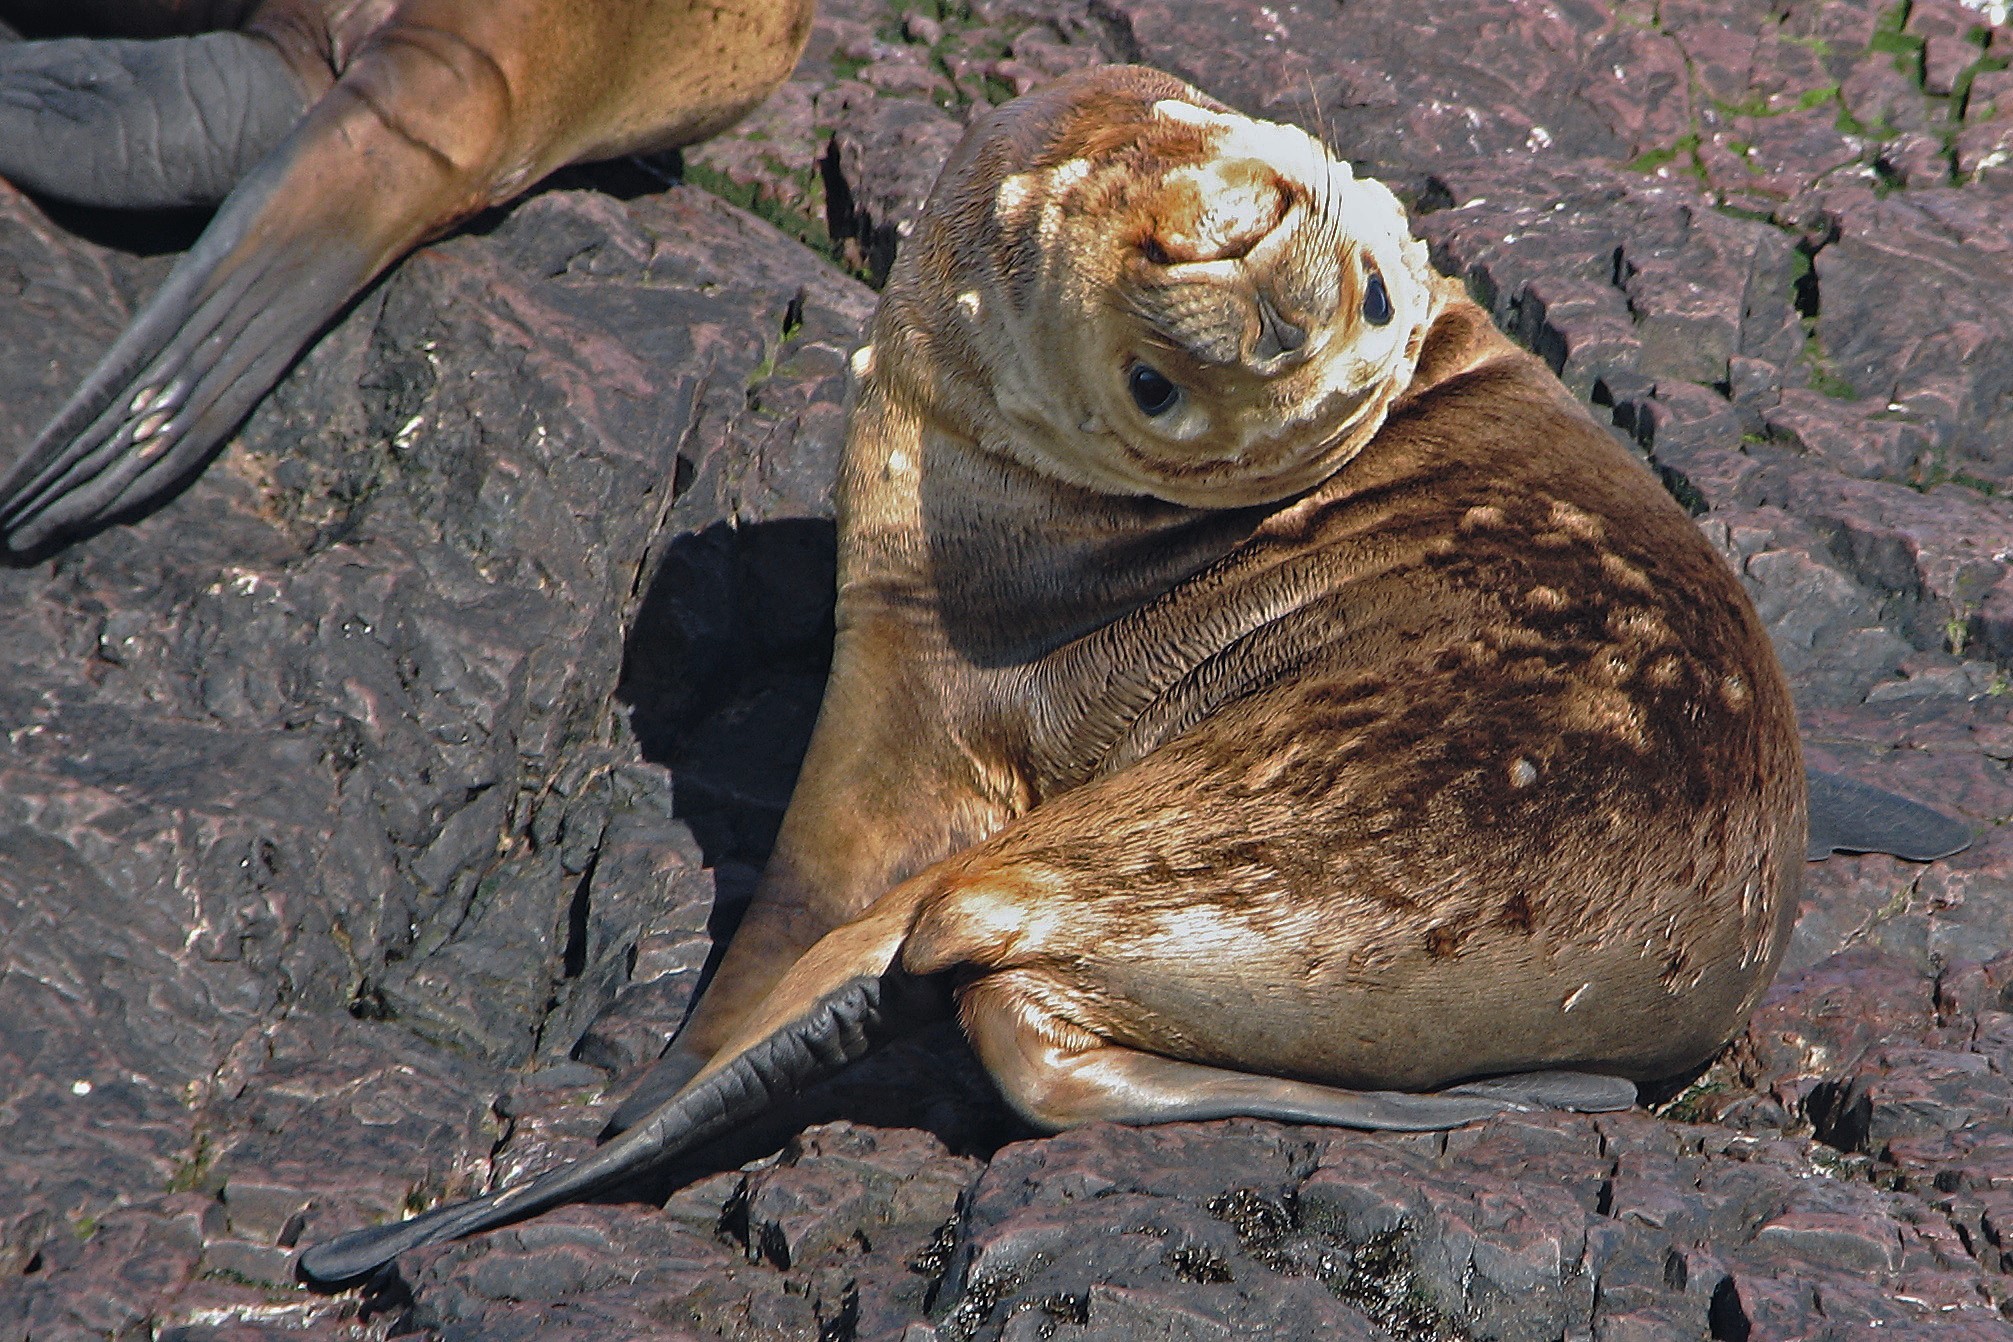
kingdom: Animalia
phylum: Chordata
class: Mammalia
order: Carnivora
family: Otariidae
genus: Otaria
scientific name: Otaria byronia
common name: South american sea lion
